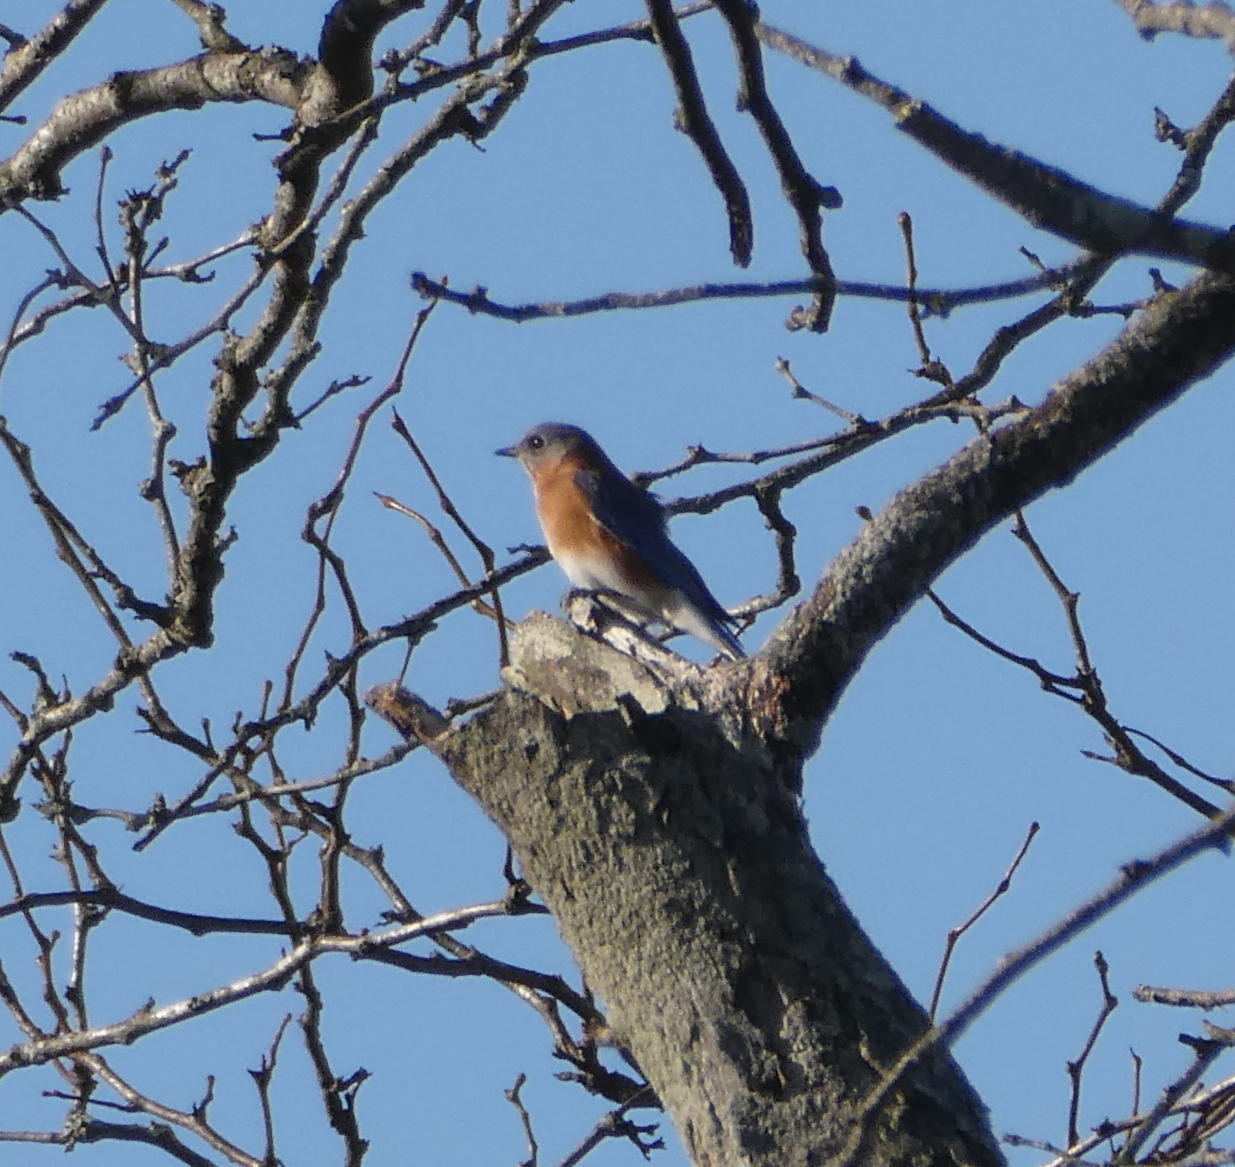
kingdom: Animalia
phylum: Chordata
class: Aves
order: Passeriformes
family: Turdidae
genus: Sialia
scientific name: Sialia sialis
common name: Eastern bluebird
